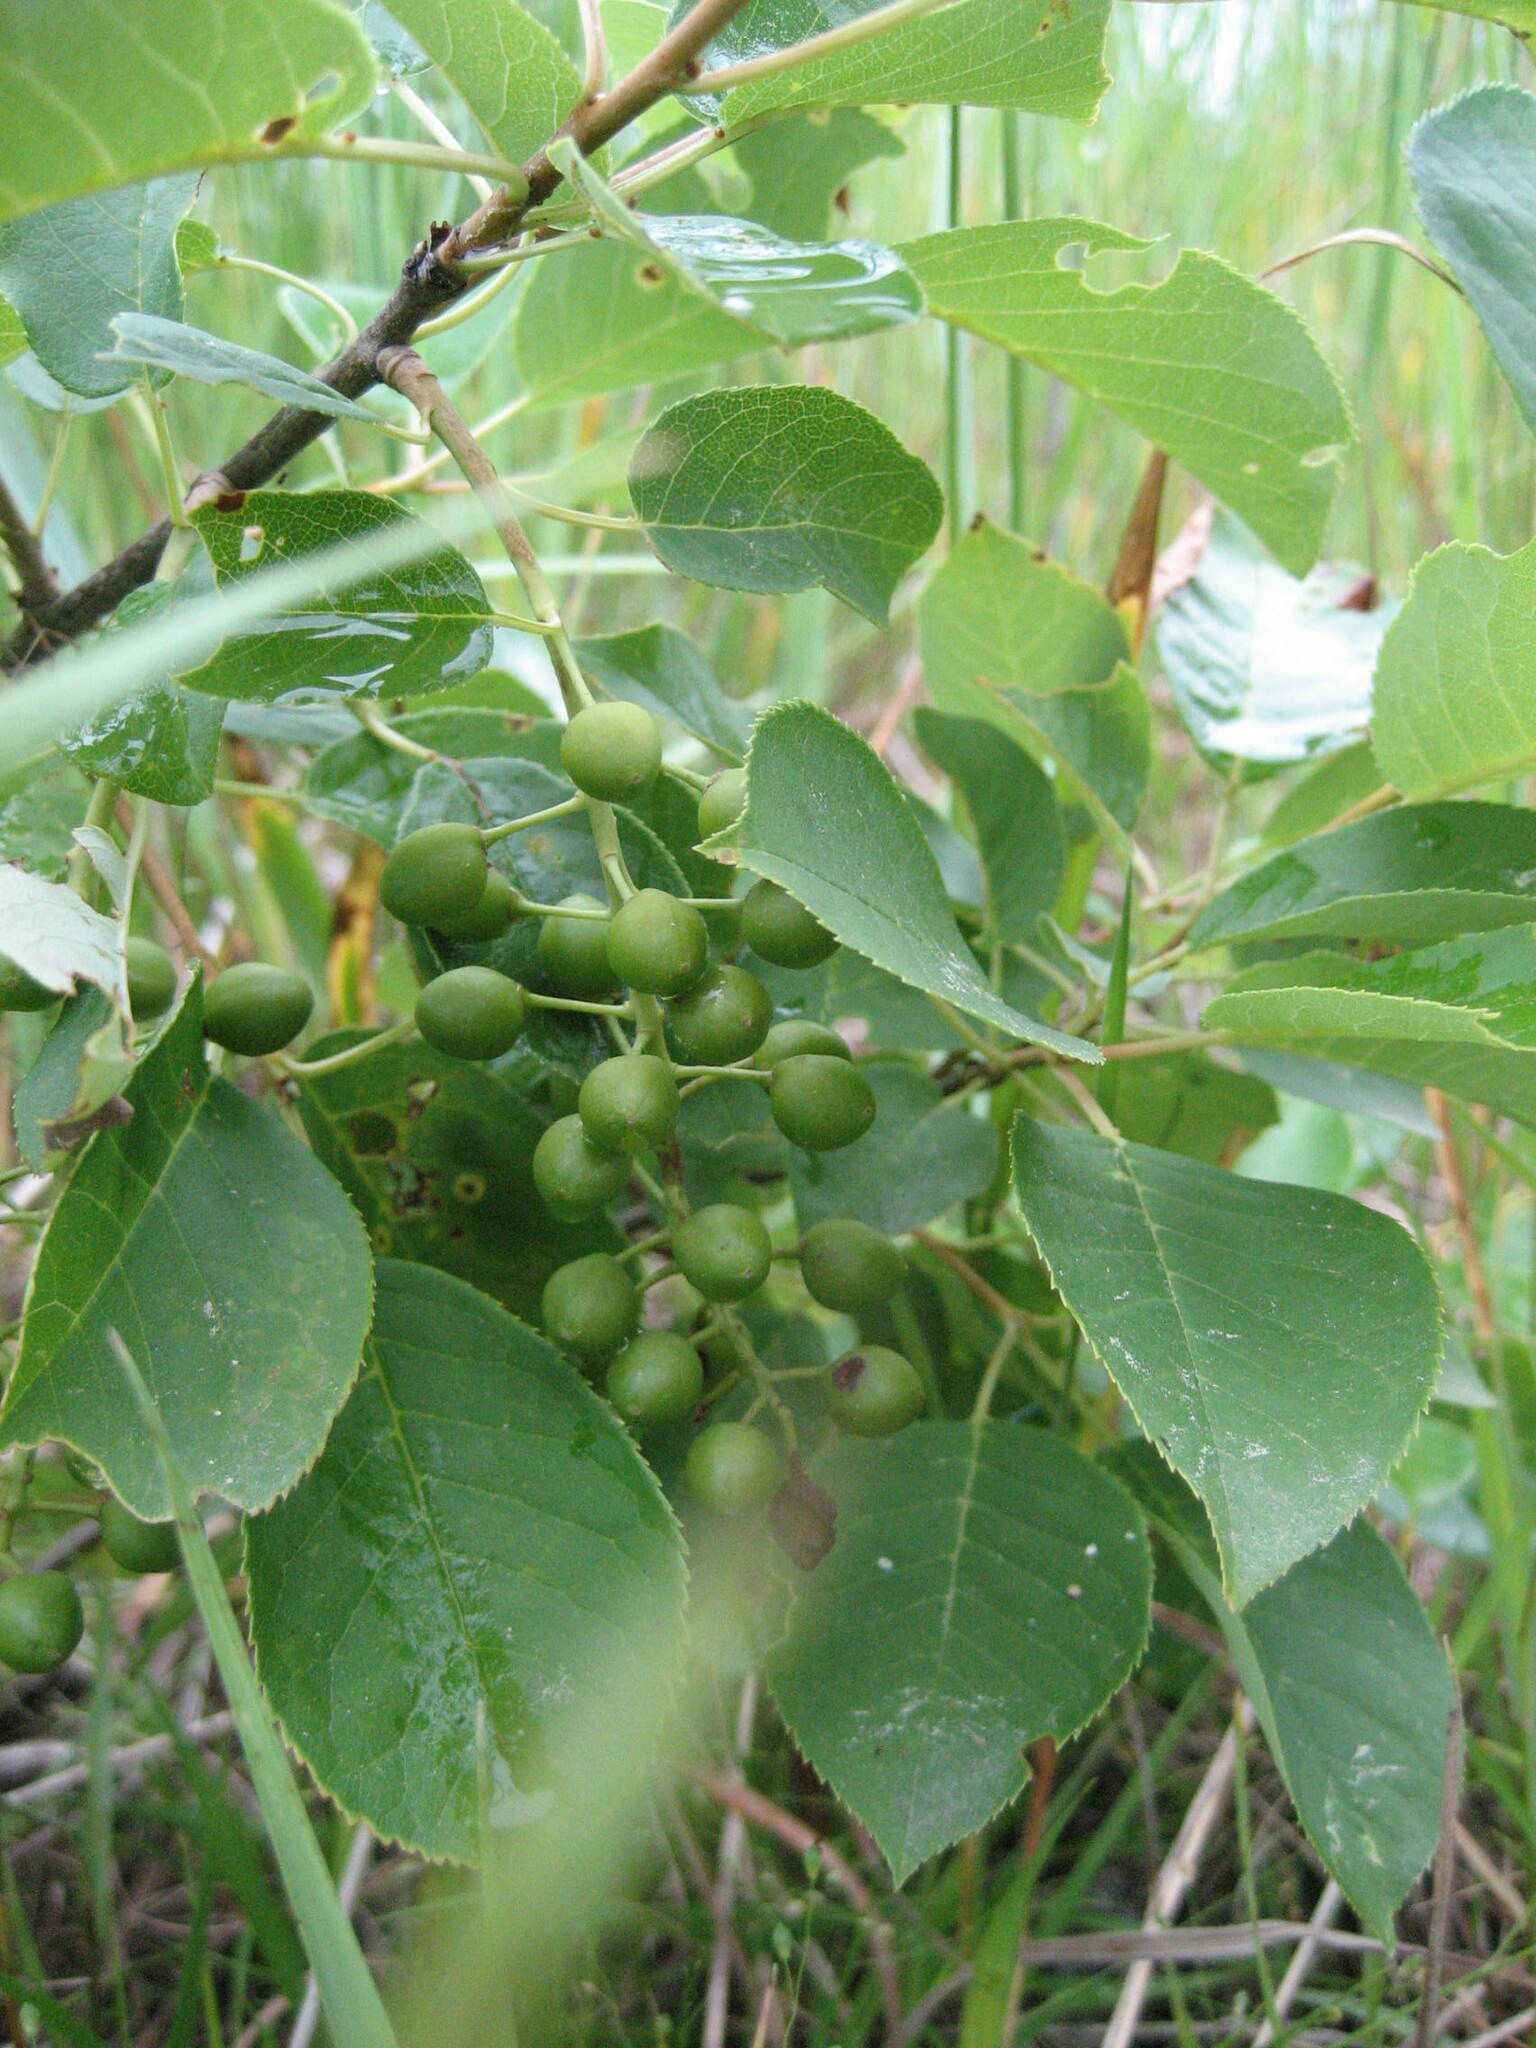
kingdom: Plantae
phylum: Tracheophyta
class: Magnoliopsida
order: Rosales
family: Rosaceae
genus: Prunus
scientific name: Prunus virginiana
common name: Chokecherry
